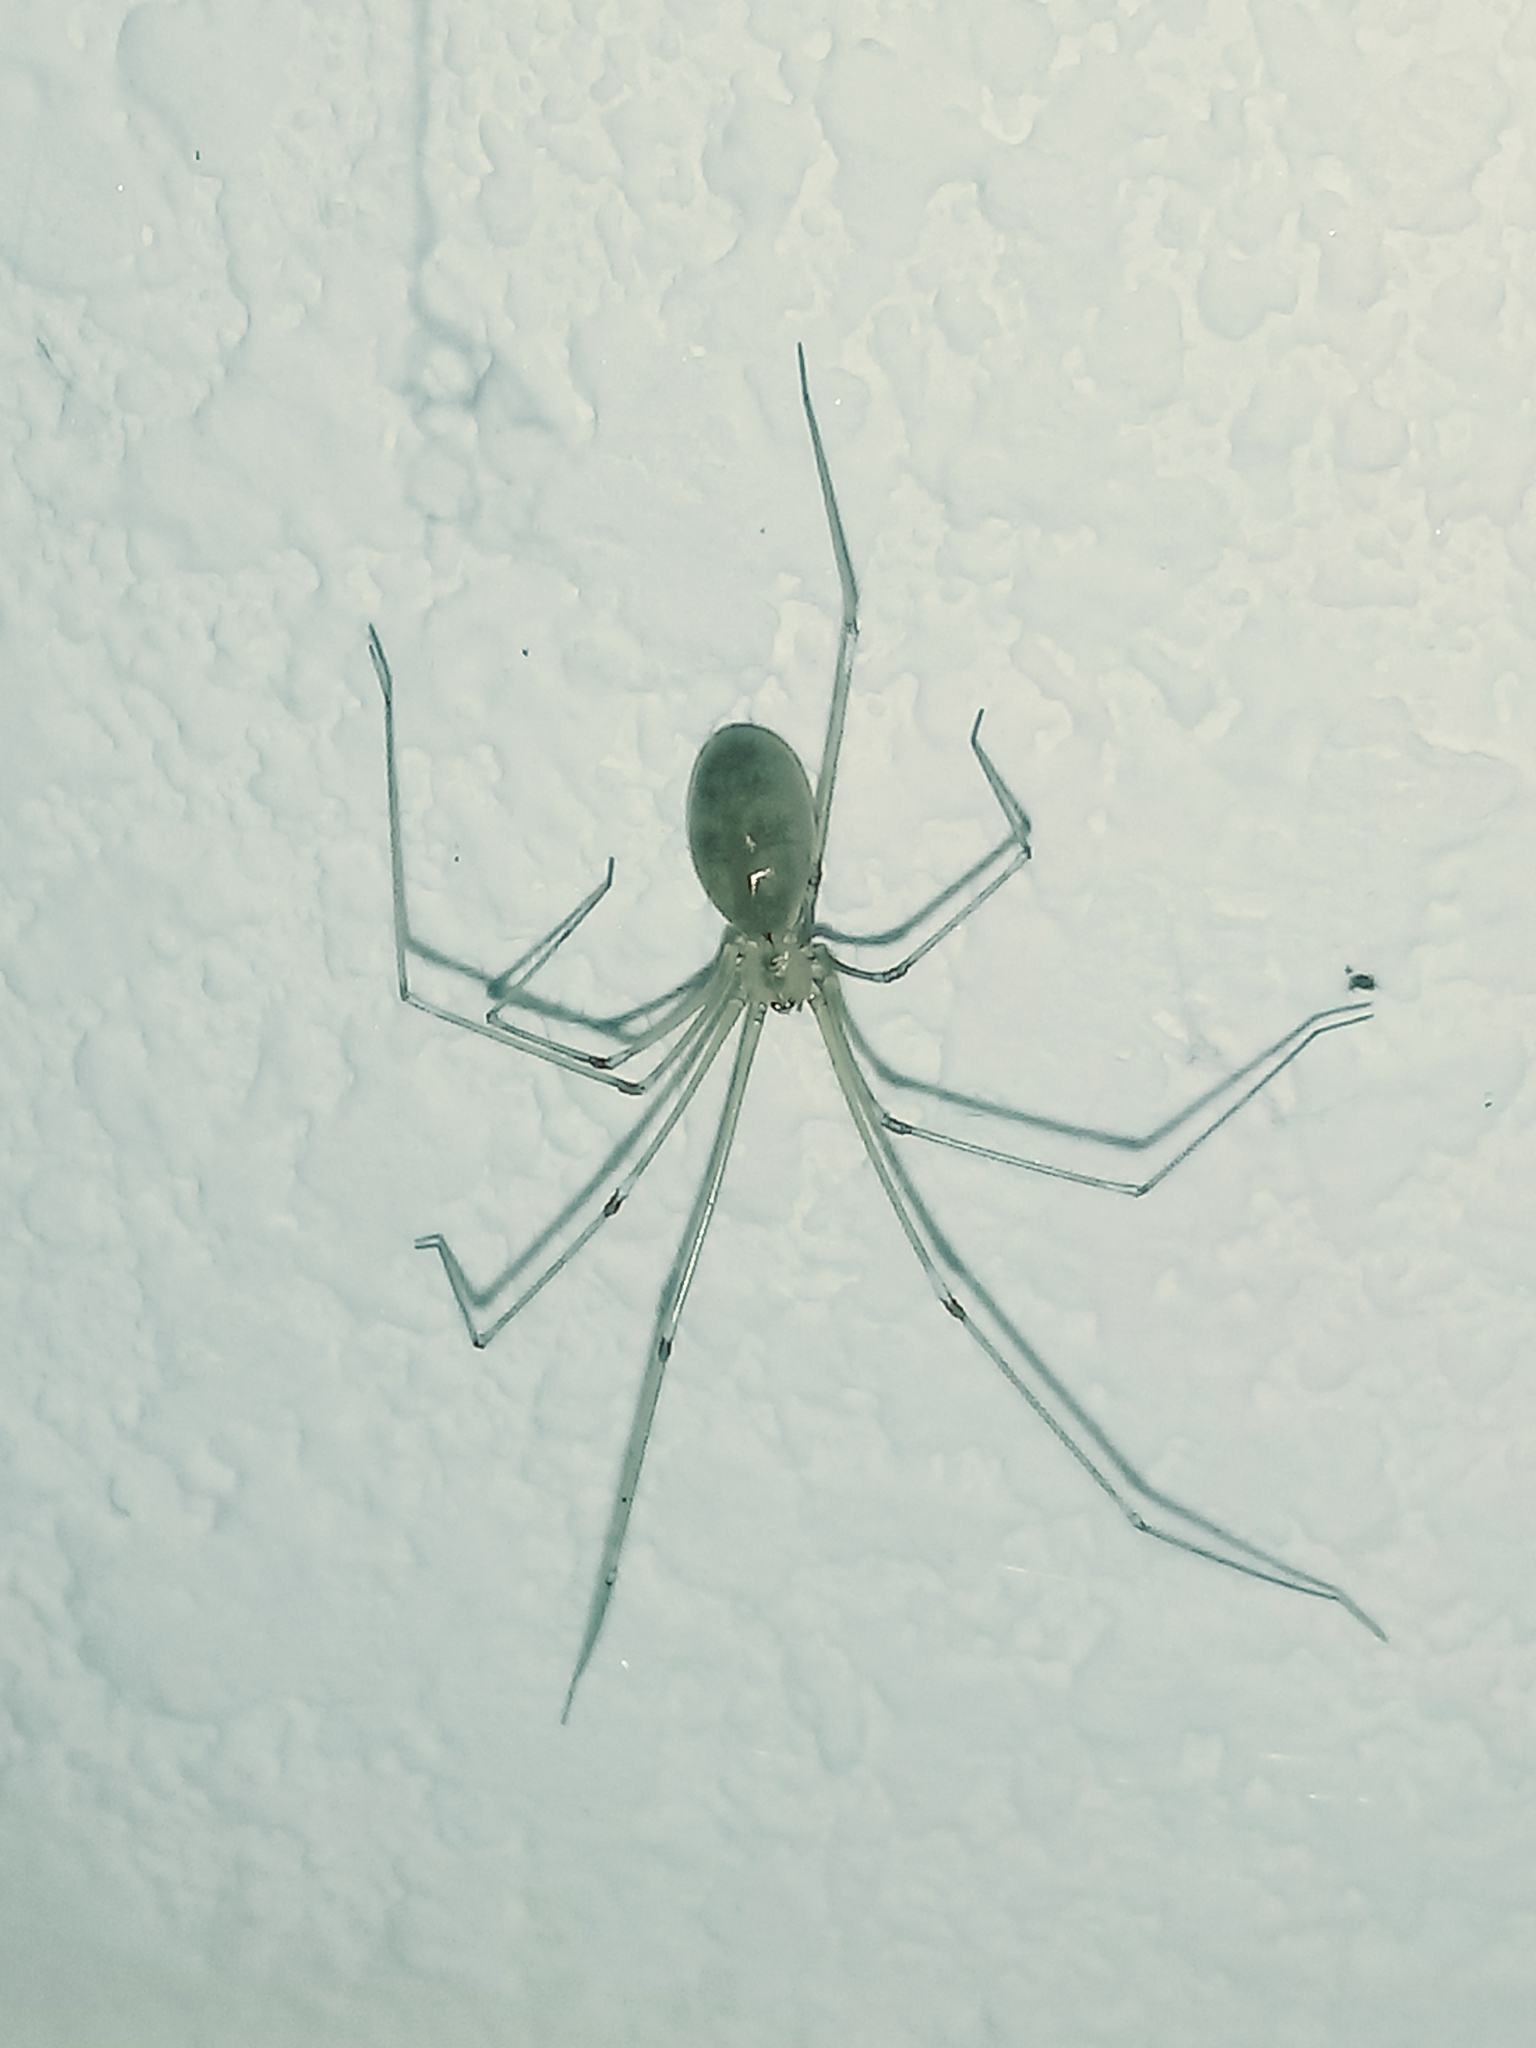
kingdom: Animalia
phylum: Arthropoda
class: Arachnida
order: Araneae
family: Pholcidae
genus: Pholcus
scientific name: Pholcus phalangioides
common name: Longbodied cellar spider
